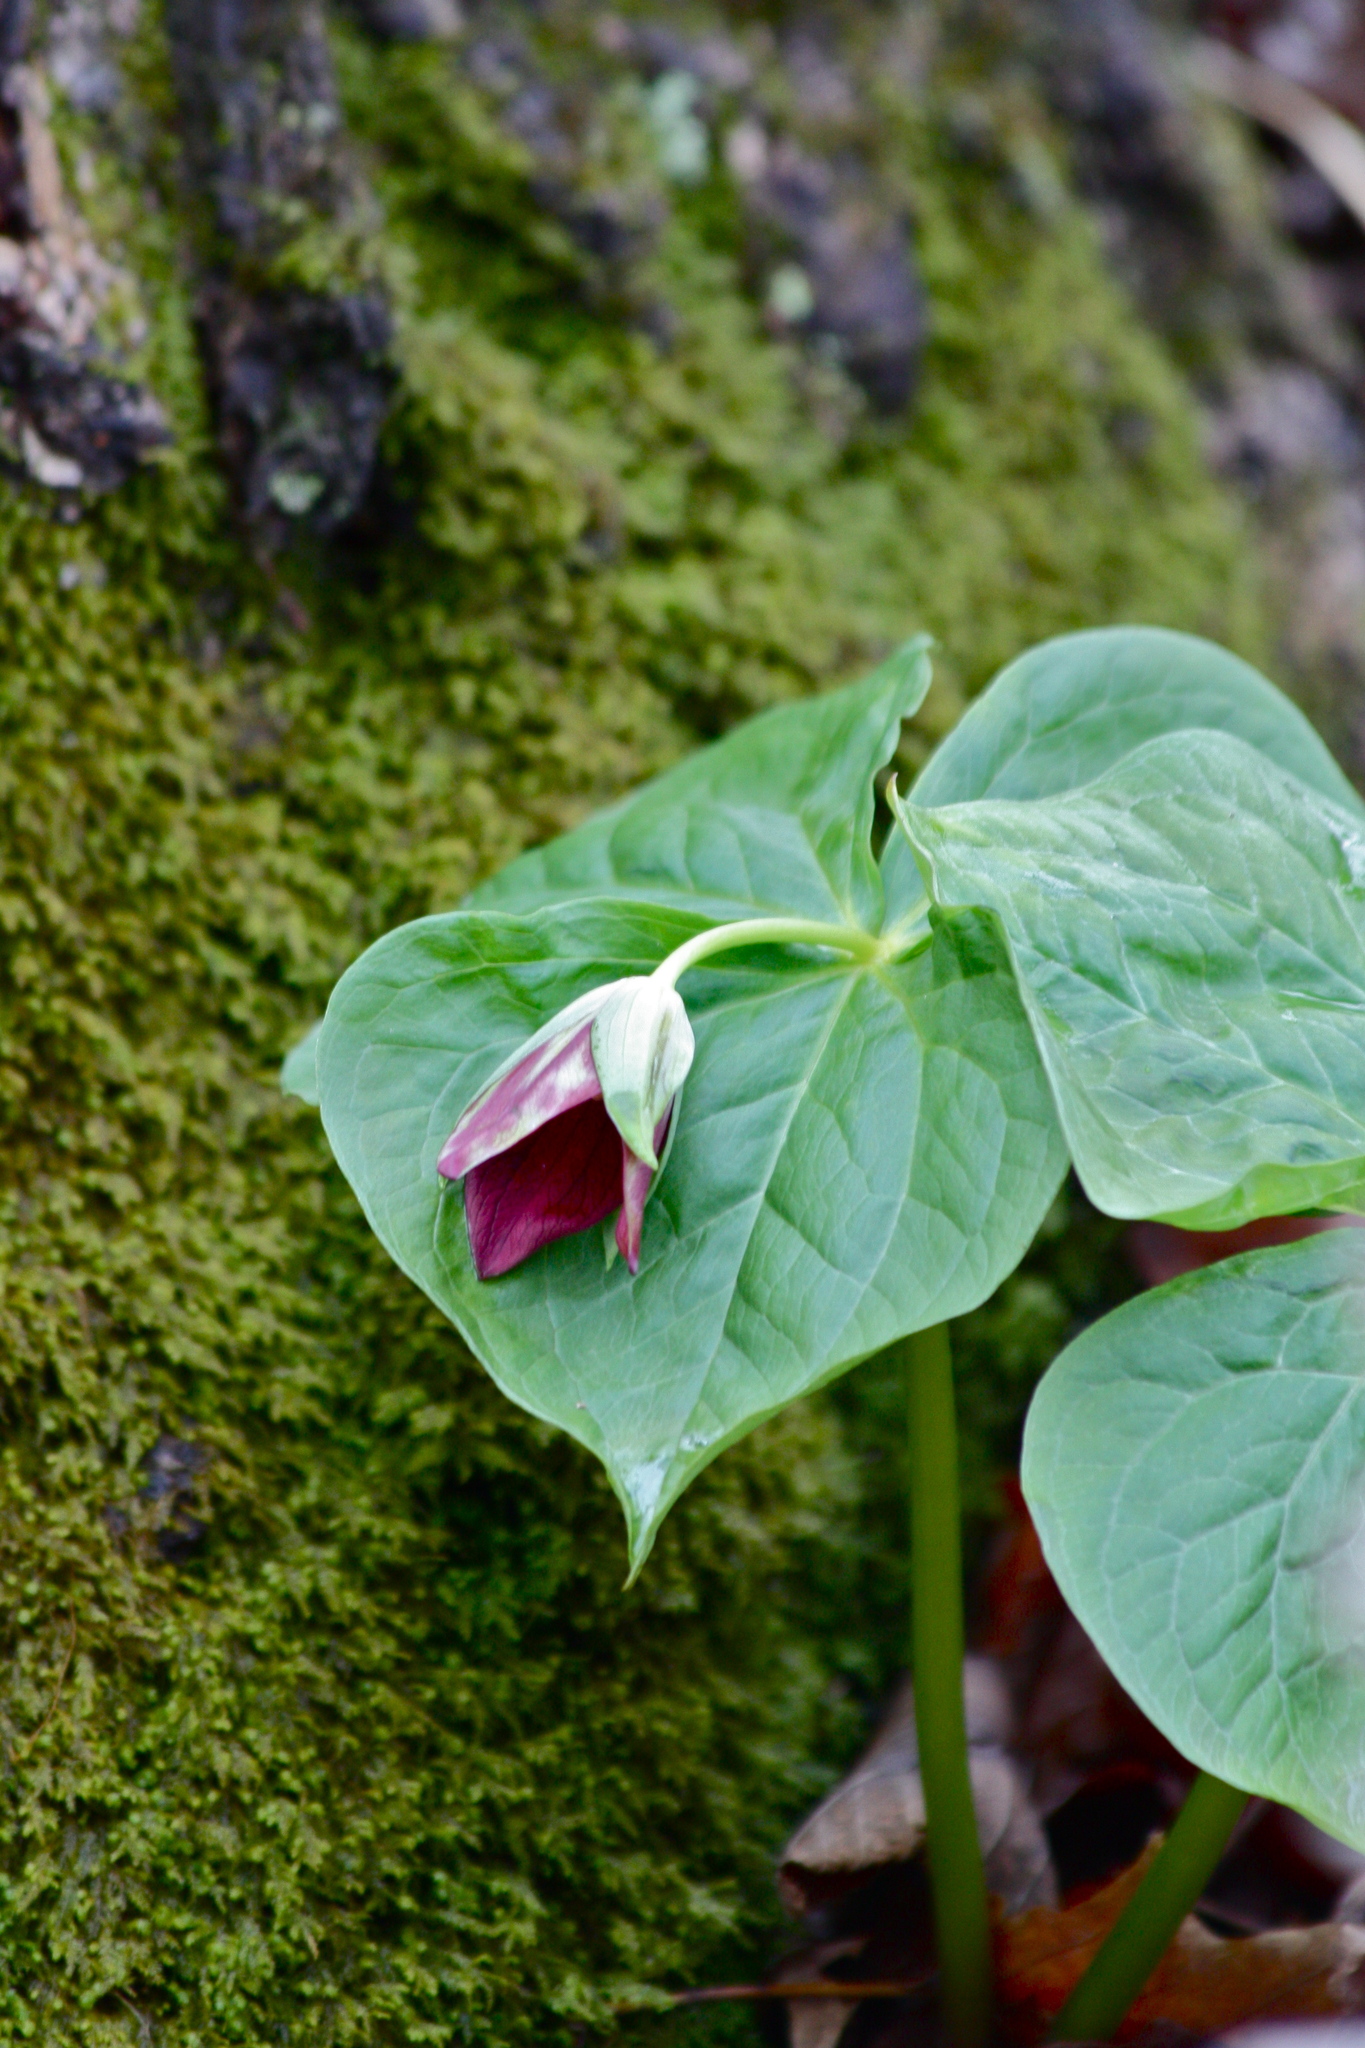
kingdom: Plantae
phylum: Tracheophyta
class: Liliopsida
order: Liliales
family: Melanthiaceae
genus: Trillium
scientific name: Trillium erectum
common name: Purple trillium
